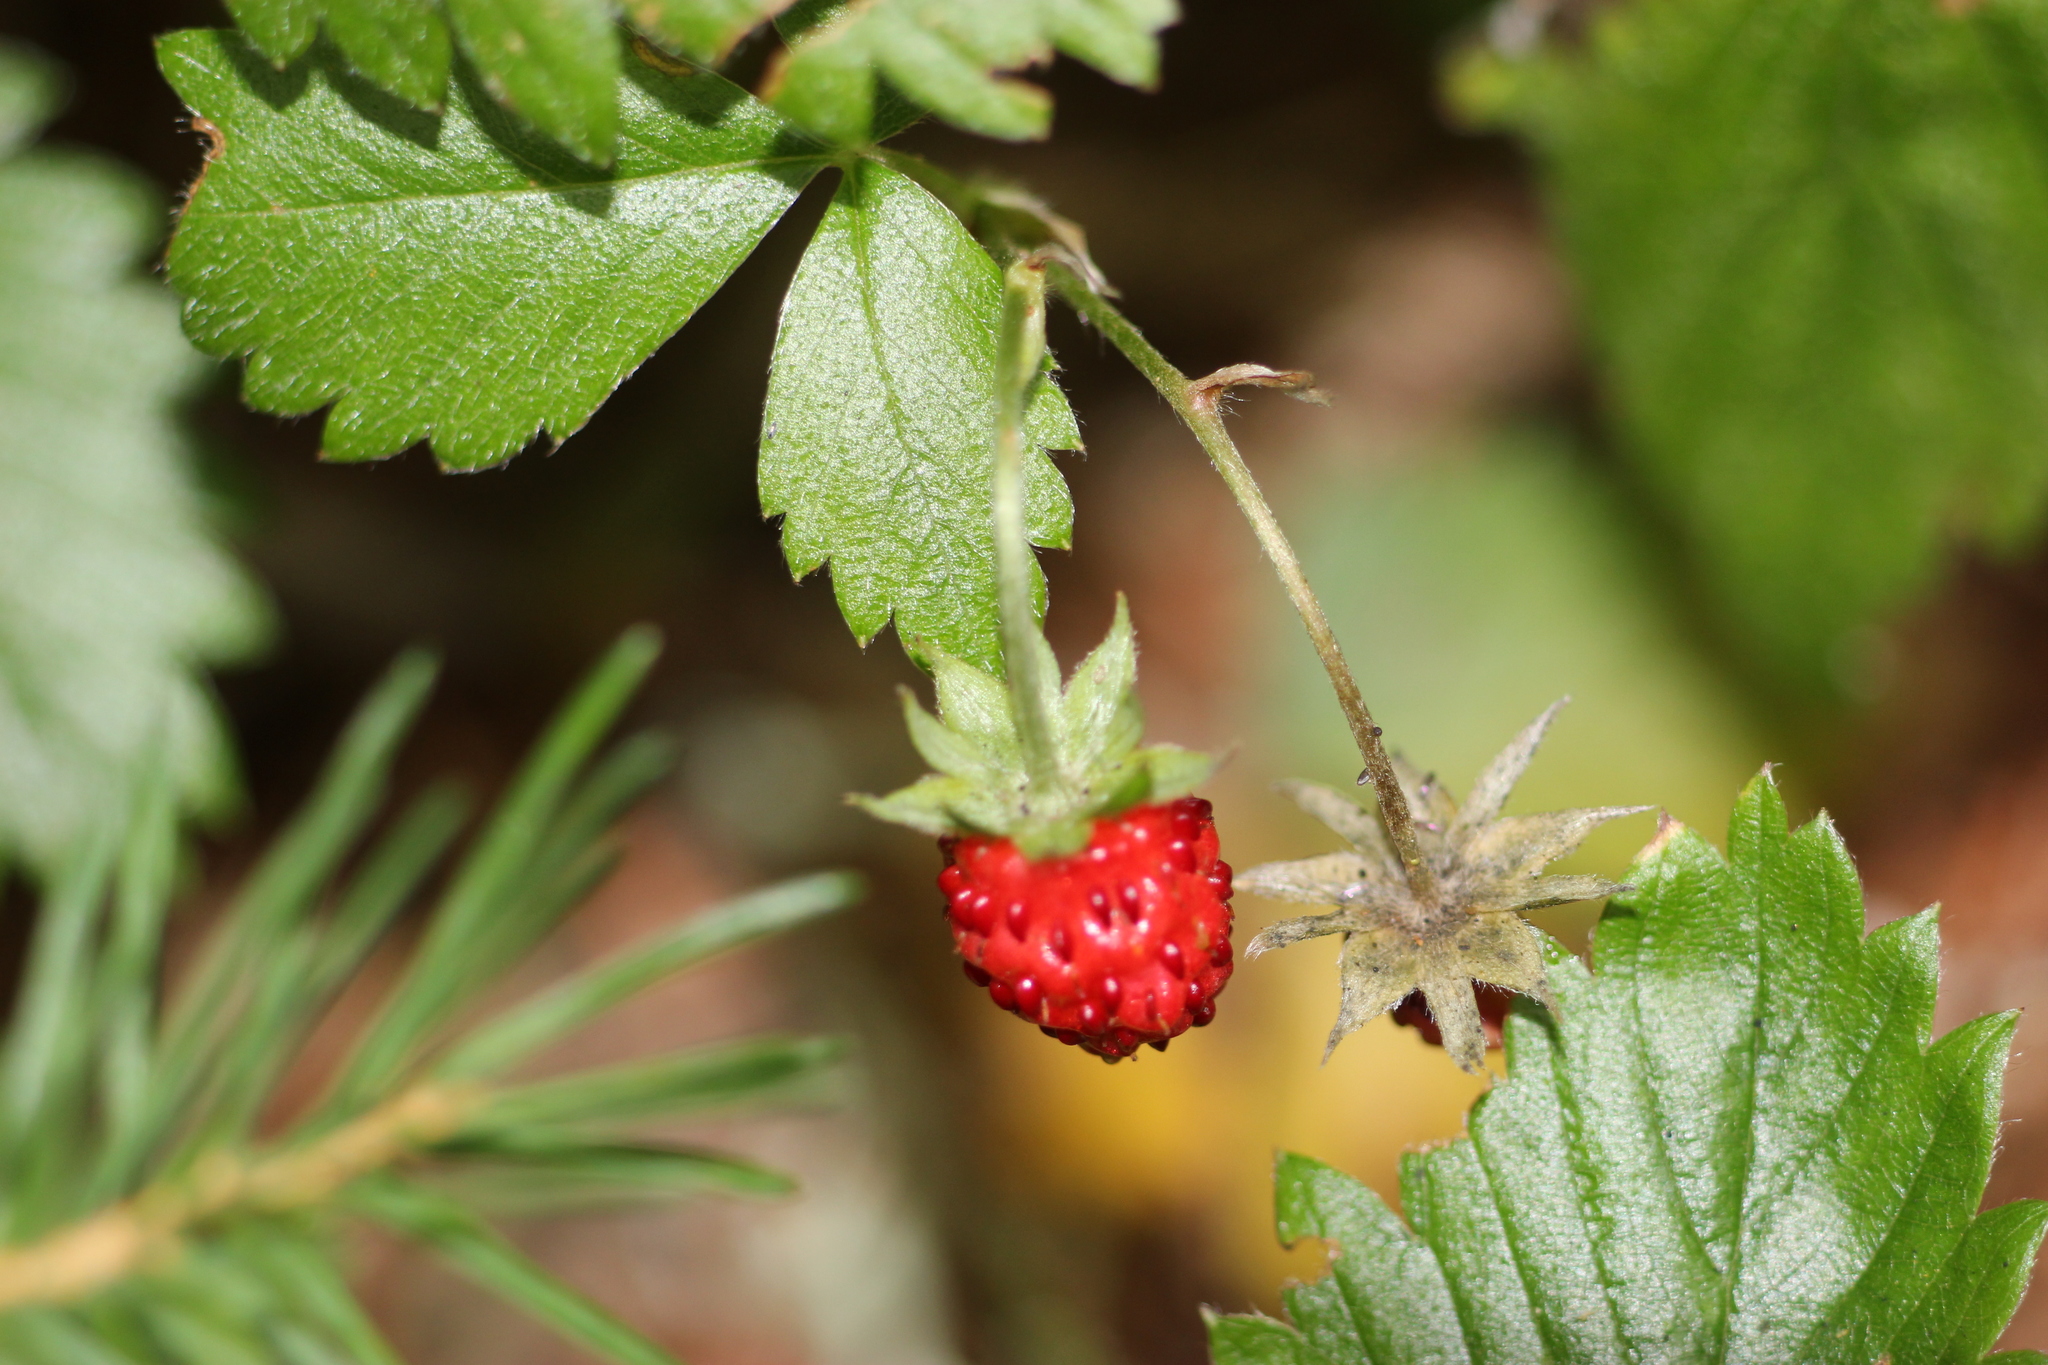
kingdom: Plantae
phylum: Tracheophyta
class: Magnoliopsida
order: Rosales
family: Rosaceae
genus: Fragaria
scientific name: Fragaria vesca
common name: Wild strawberry
